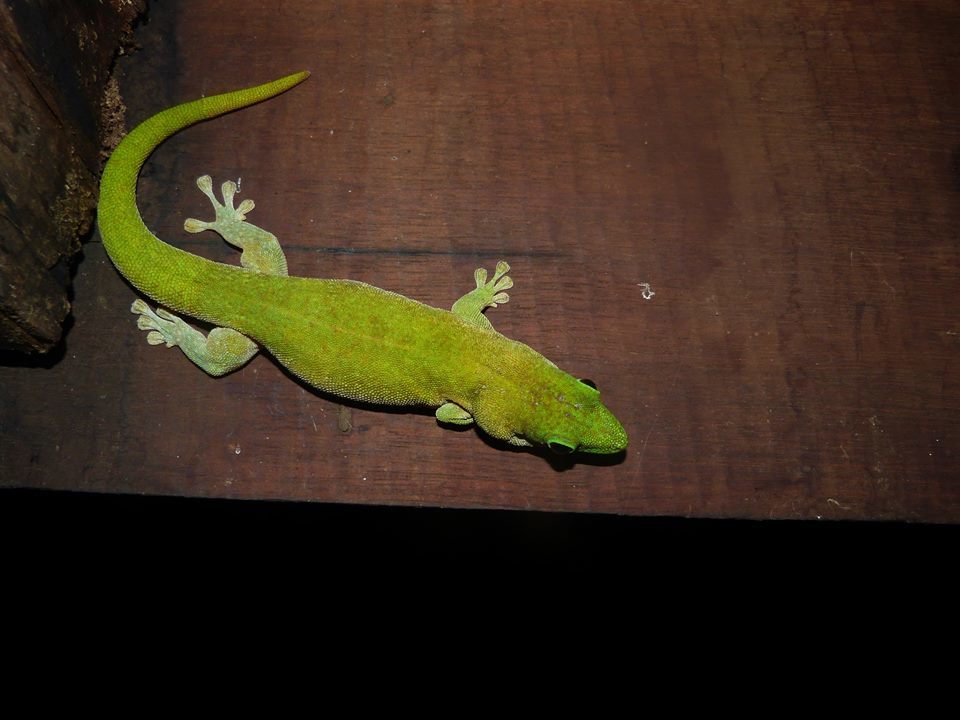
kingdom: Animalia
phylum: Chordata
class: Squamata
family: Gekkonidae
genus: Phelsuma
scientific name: Phelsuma kochi
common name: Madagascar day gecko
